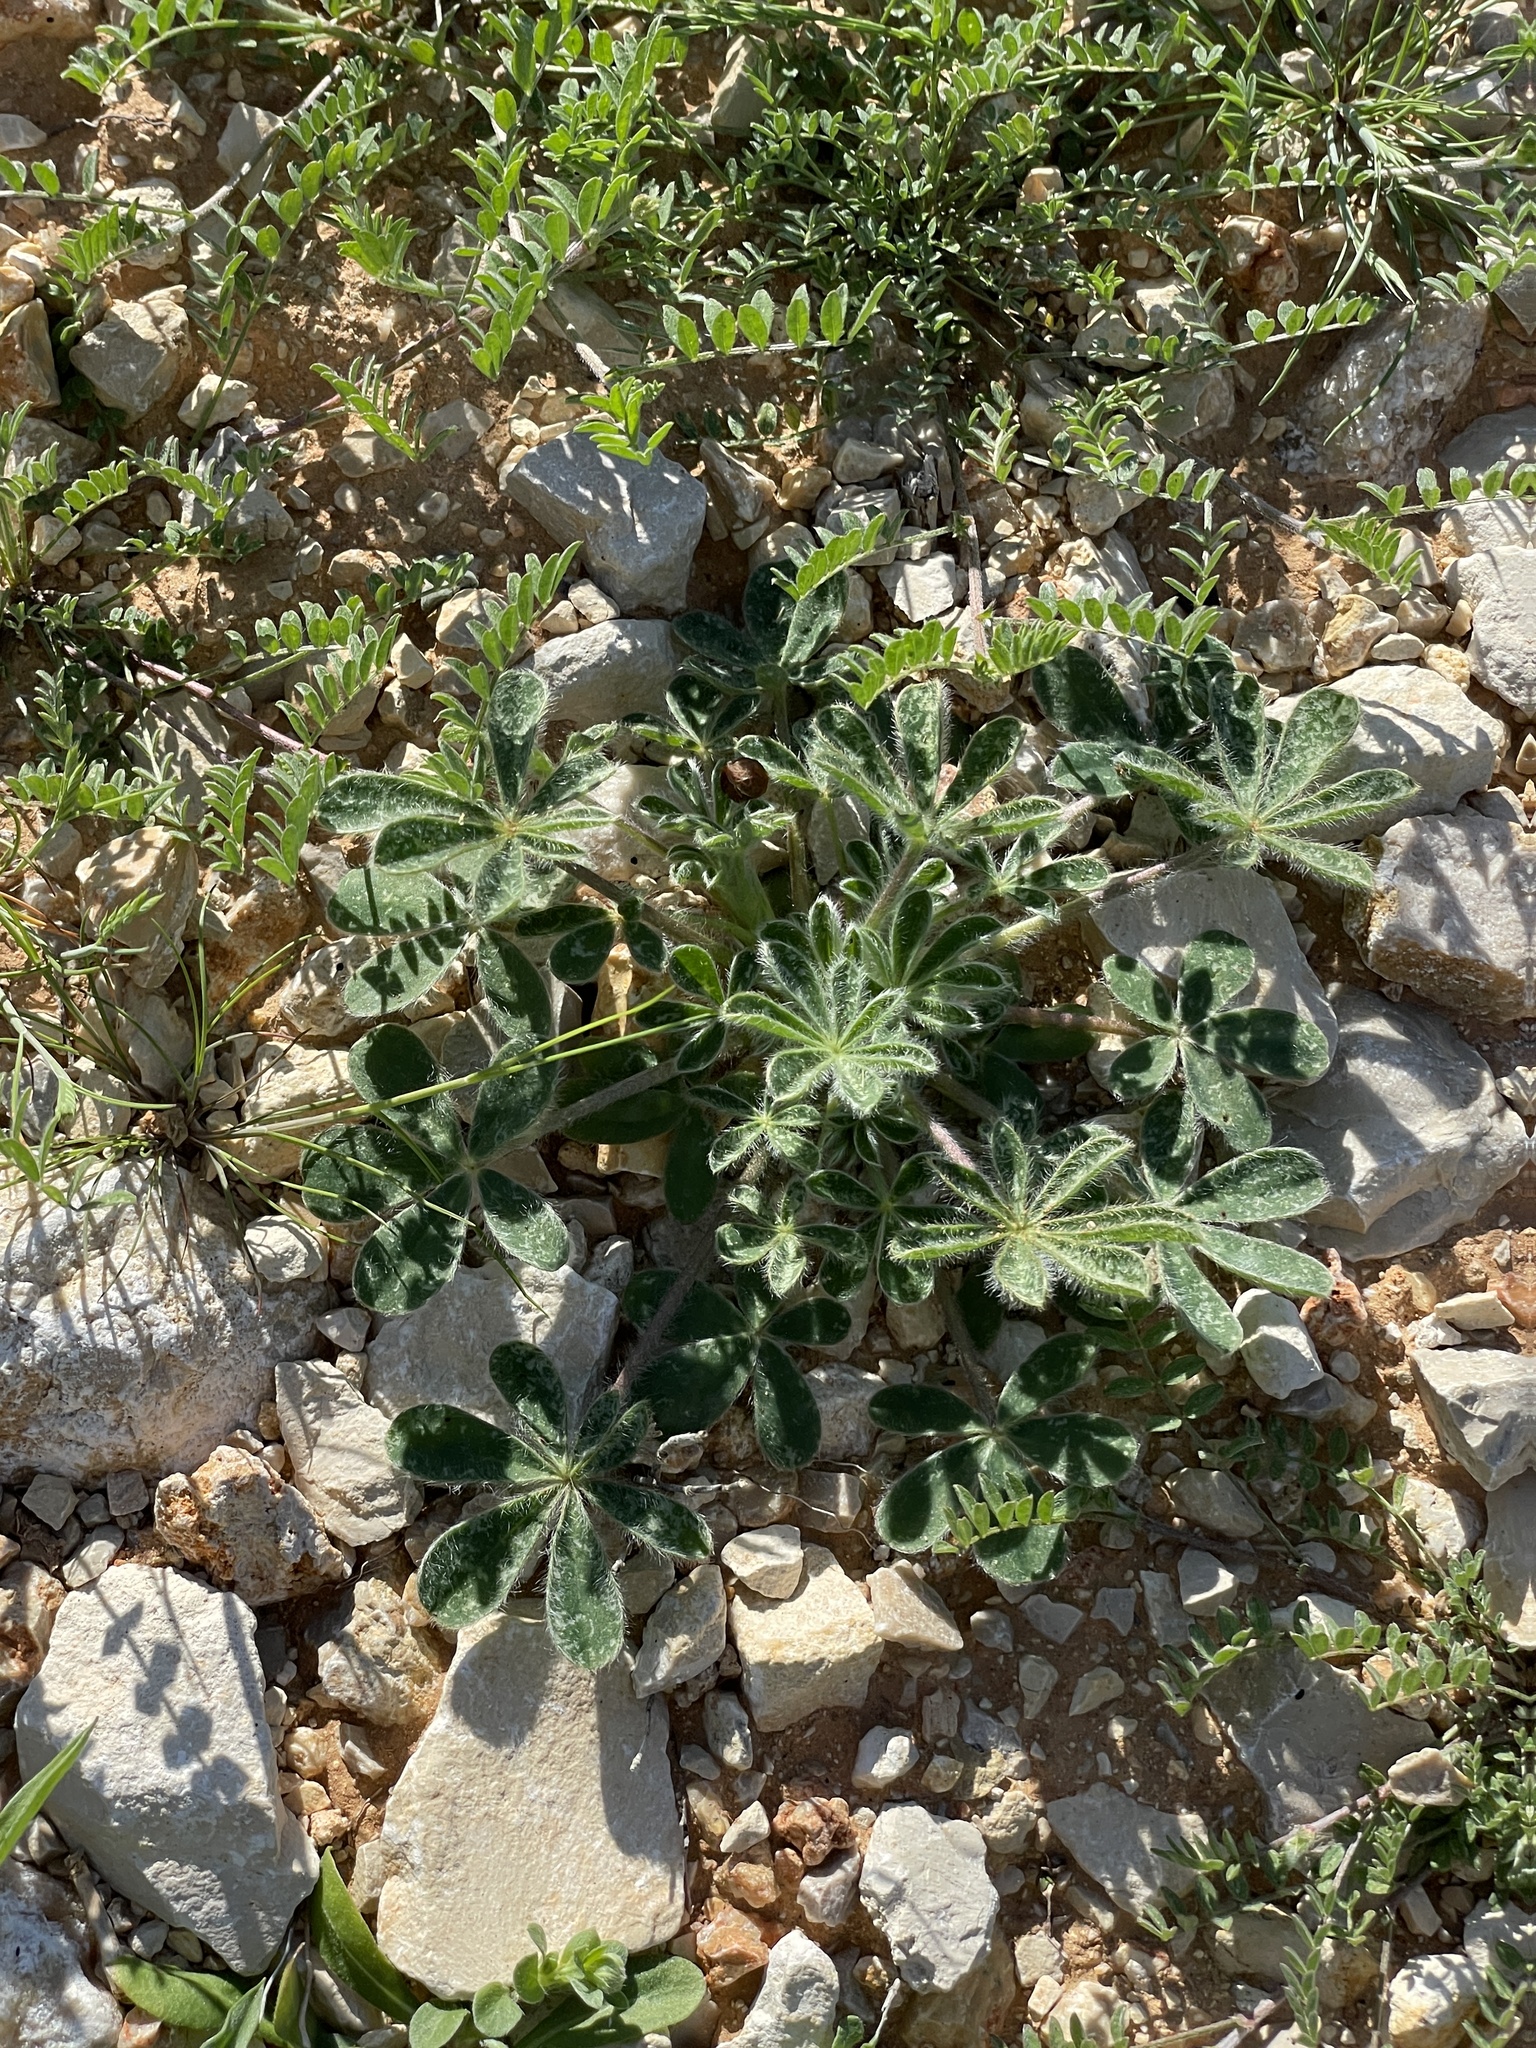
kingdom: Plantae
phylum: Tracheophyta
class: Magnoliopsida
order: Fabales
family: Fabaceae
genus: Lupinus
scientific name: Lupinus subcarnosus
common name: Texas bluebonnet
